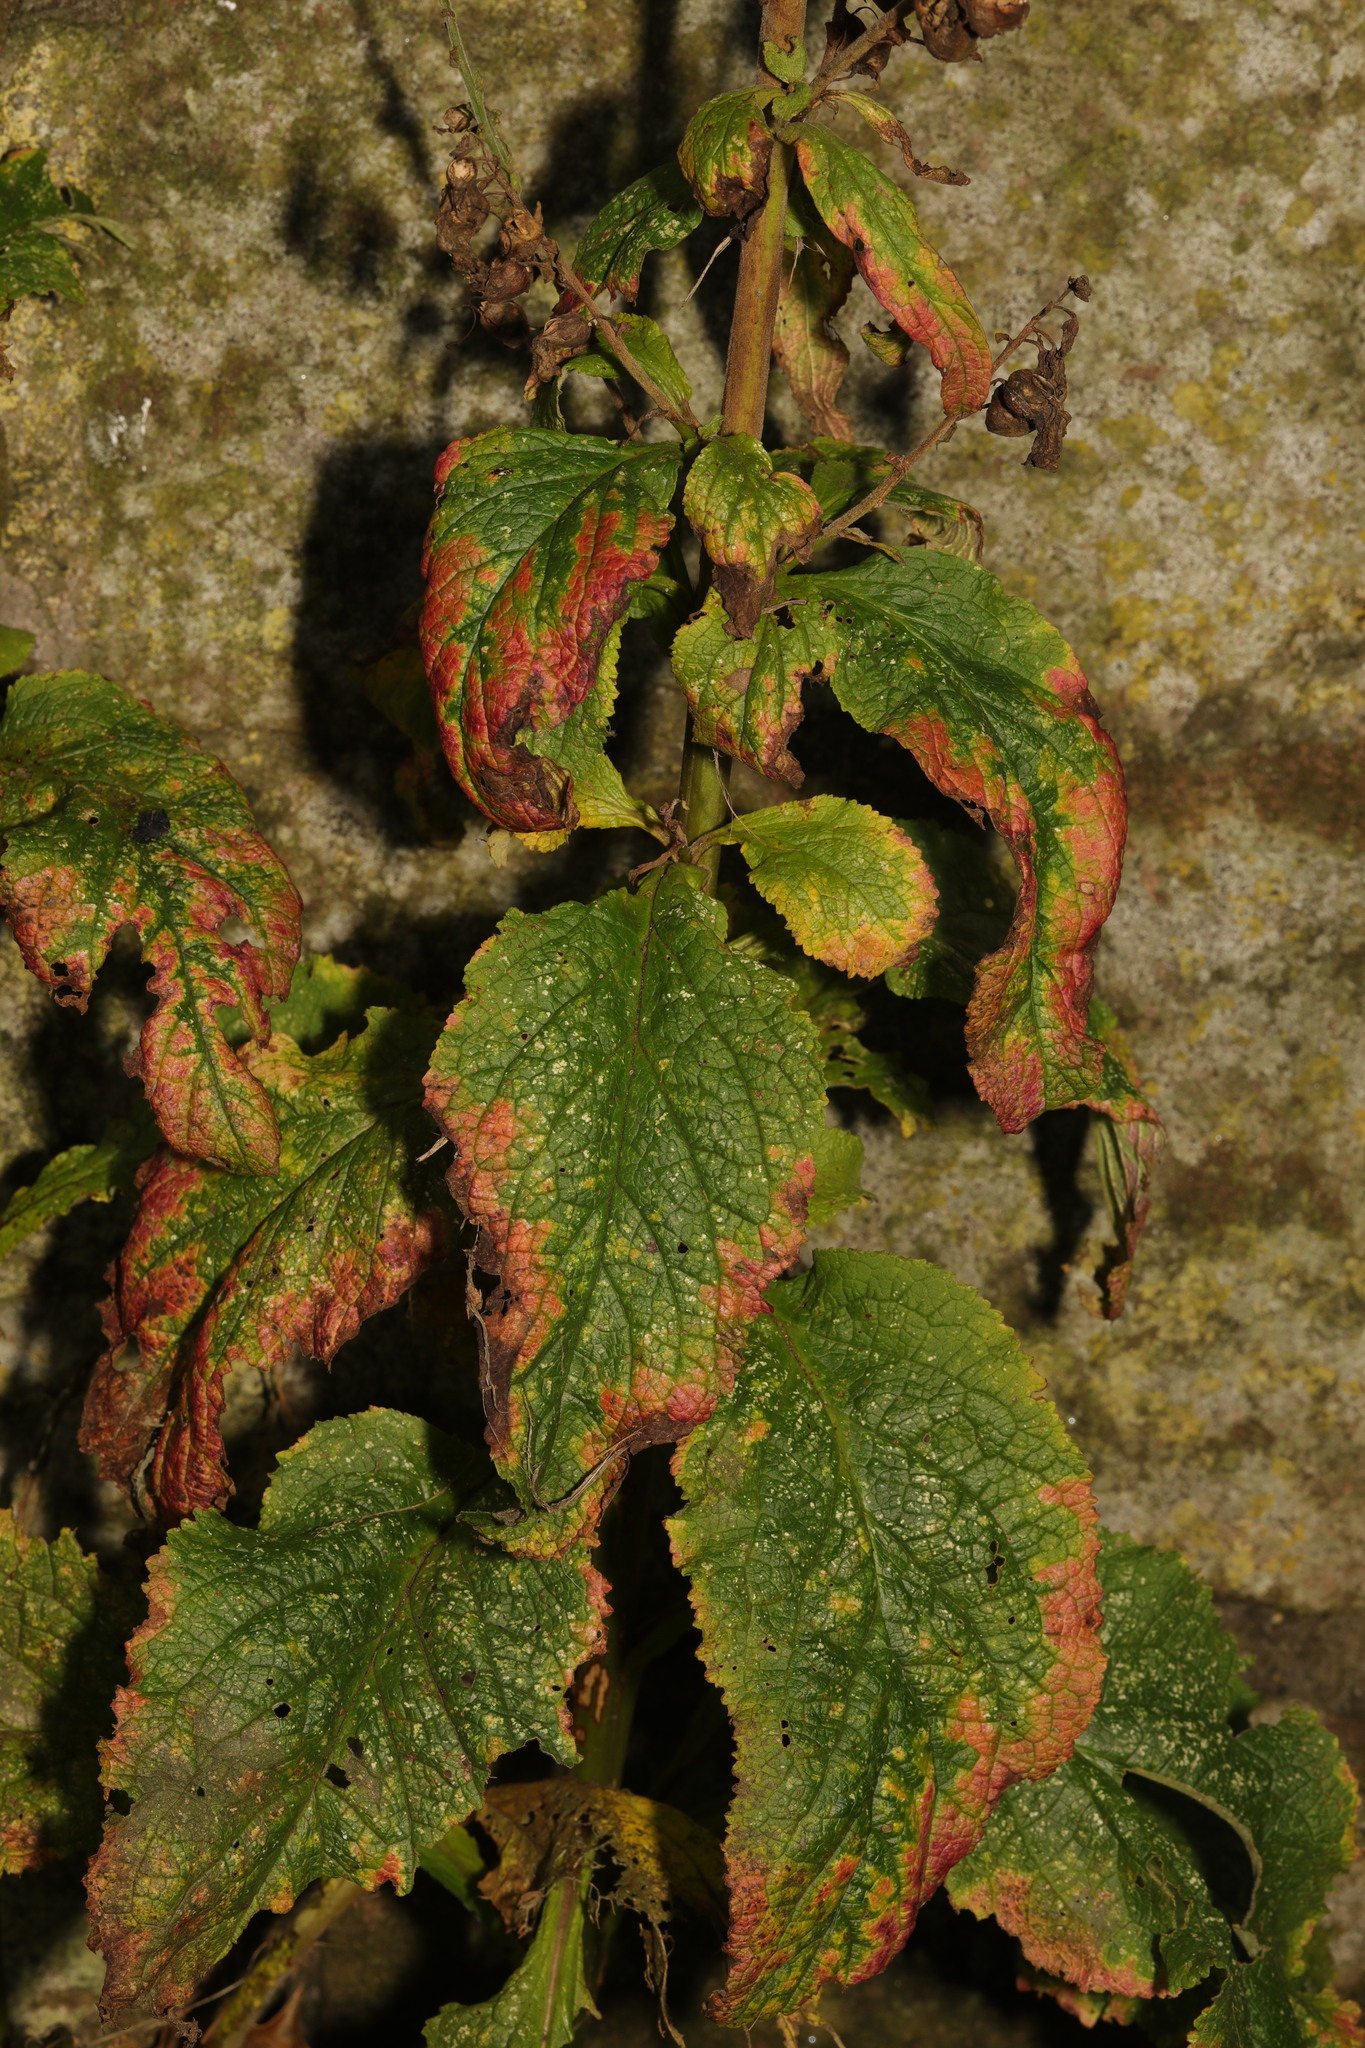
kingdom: Plantae
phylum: Tracheophyta
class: Magnoliopsida
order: Lamiales
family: Plantaginaceae
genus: Digitalis
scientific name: Digitalis purpurea
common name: Foxglove
